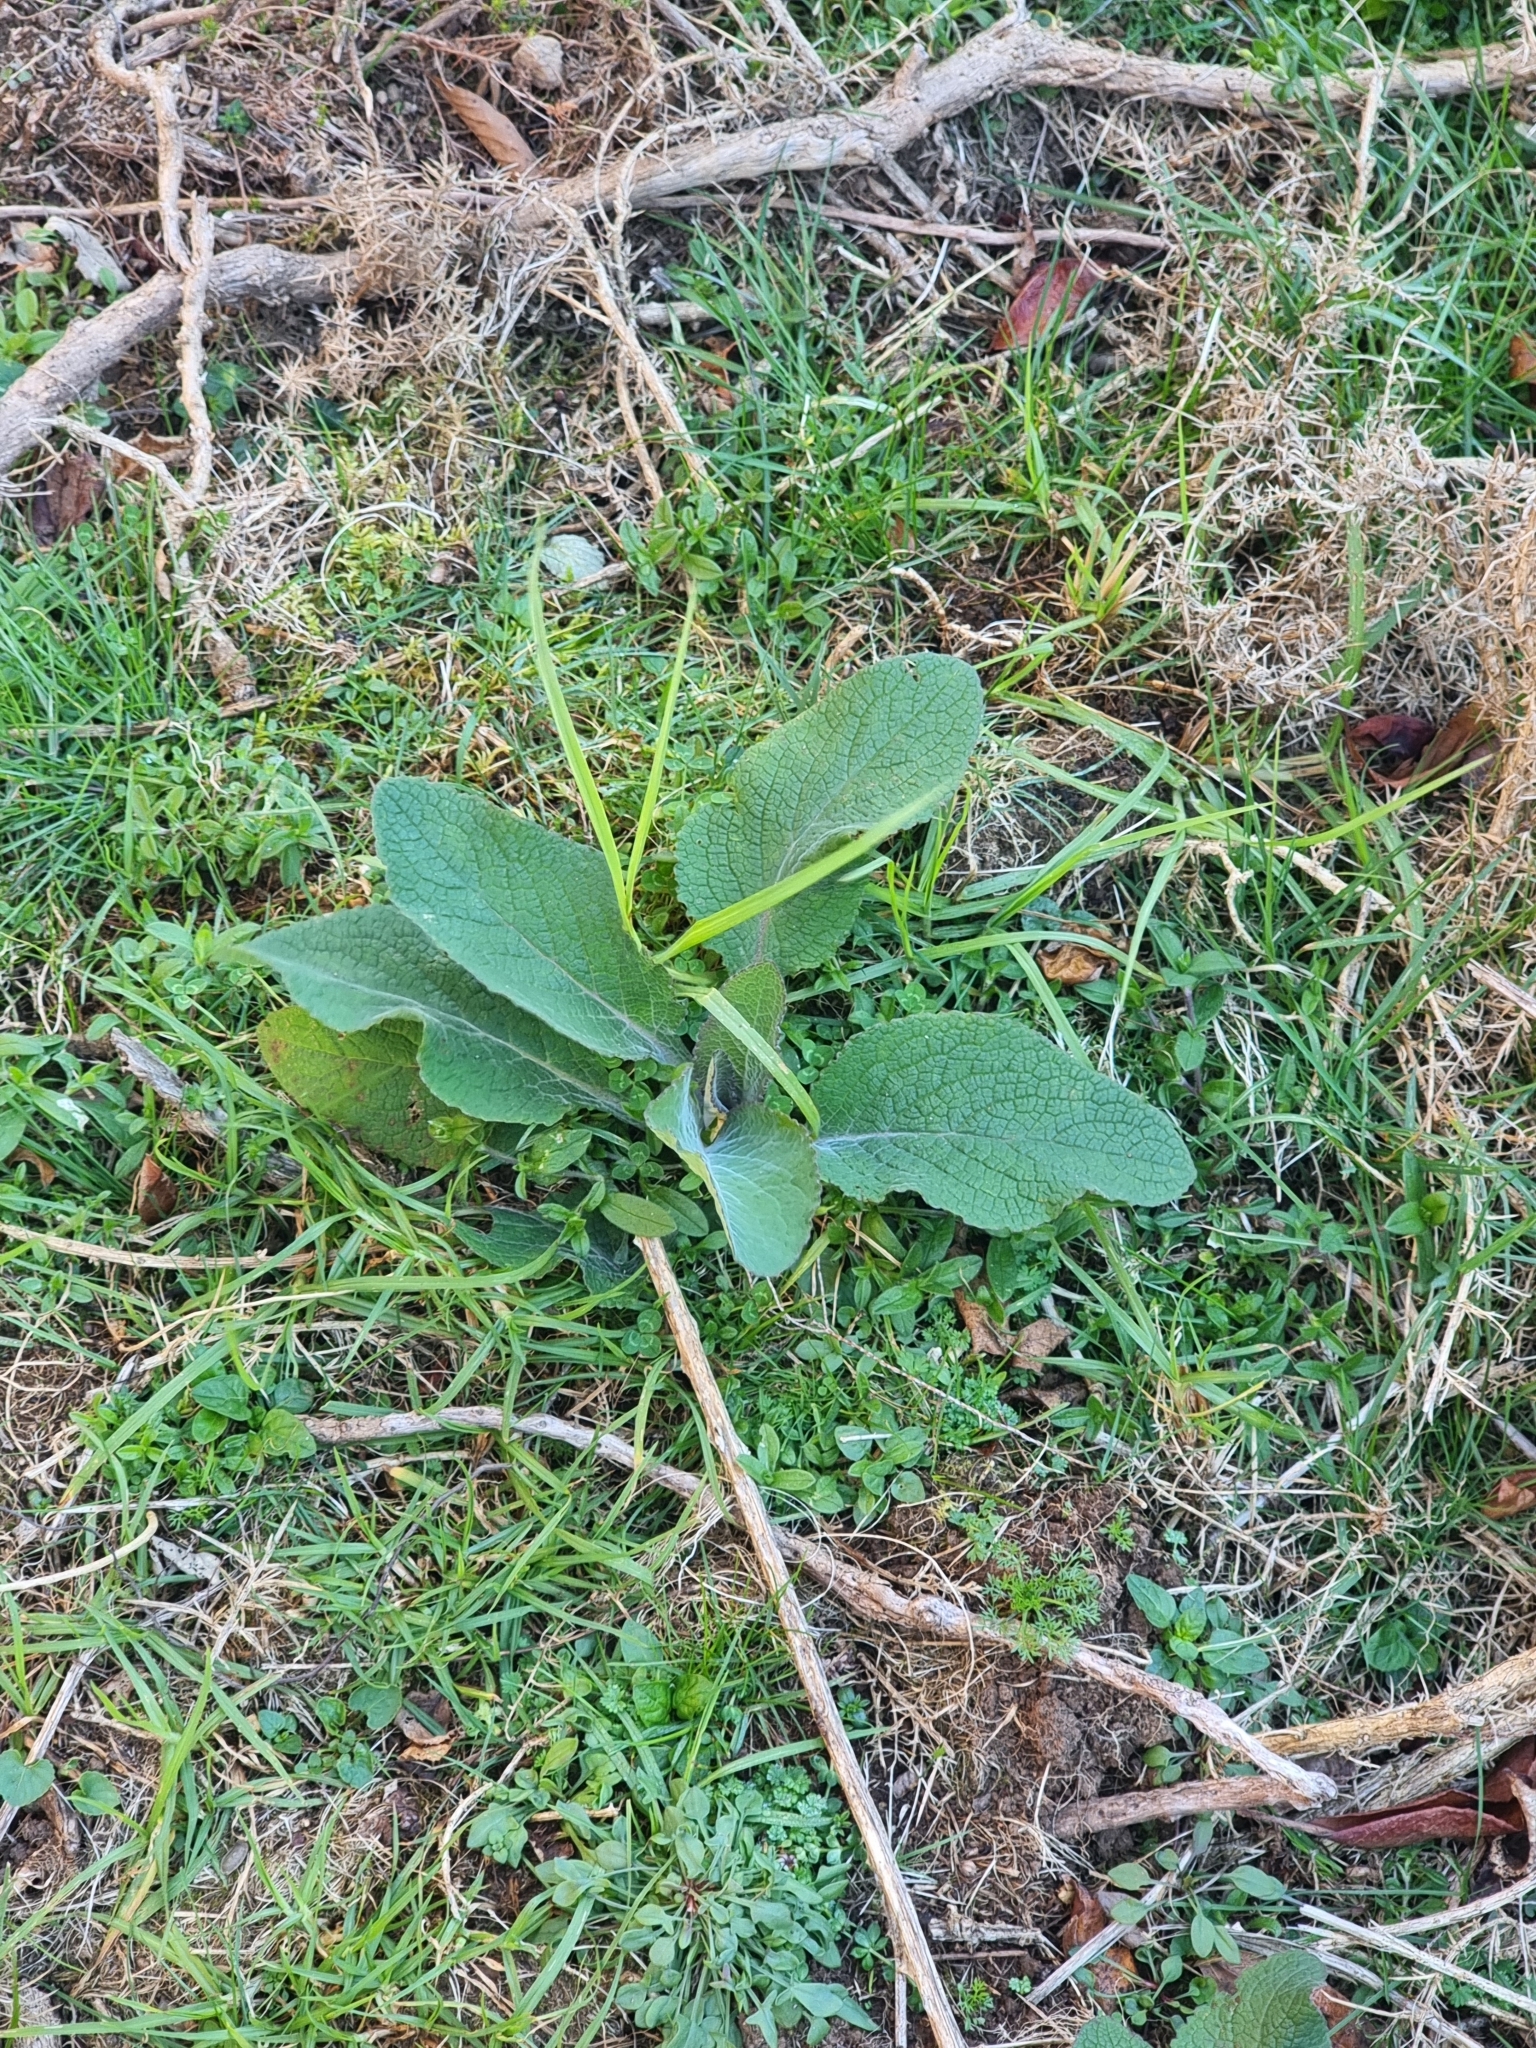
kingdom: Plantae
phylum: Tracheophyta
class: Magnoliopsida
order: Lamiales
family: Plantaginaceae
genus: Digitalis
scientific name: Digitalis purpurea
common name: Foxglove
